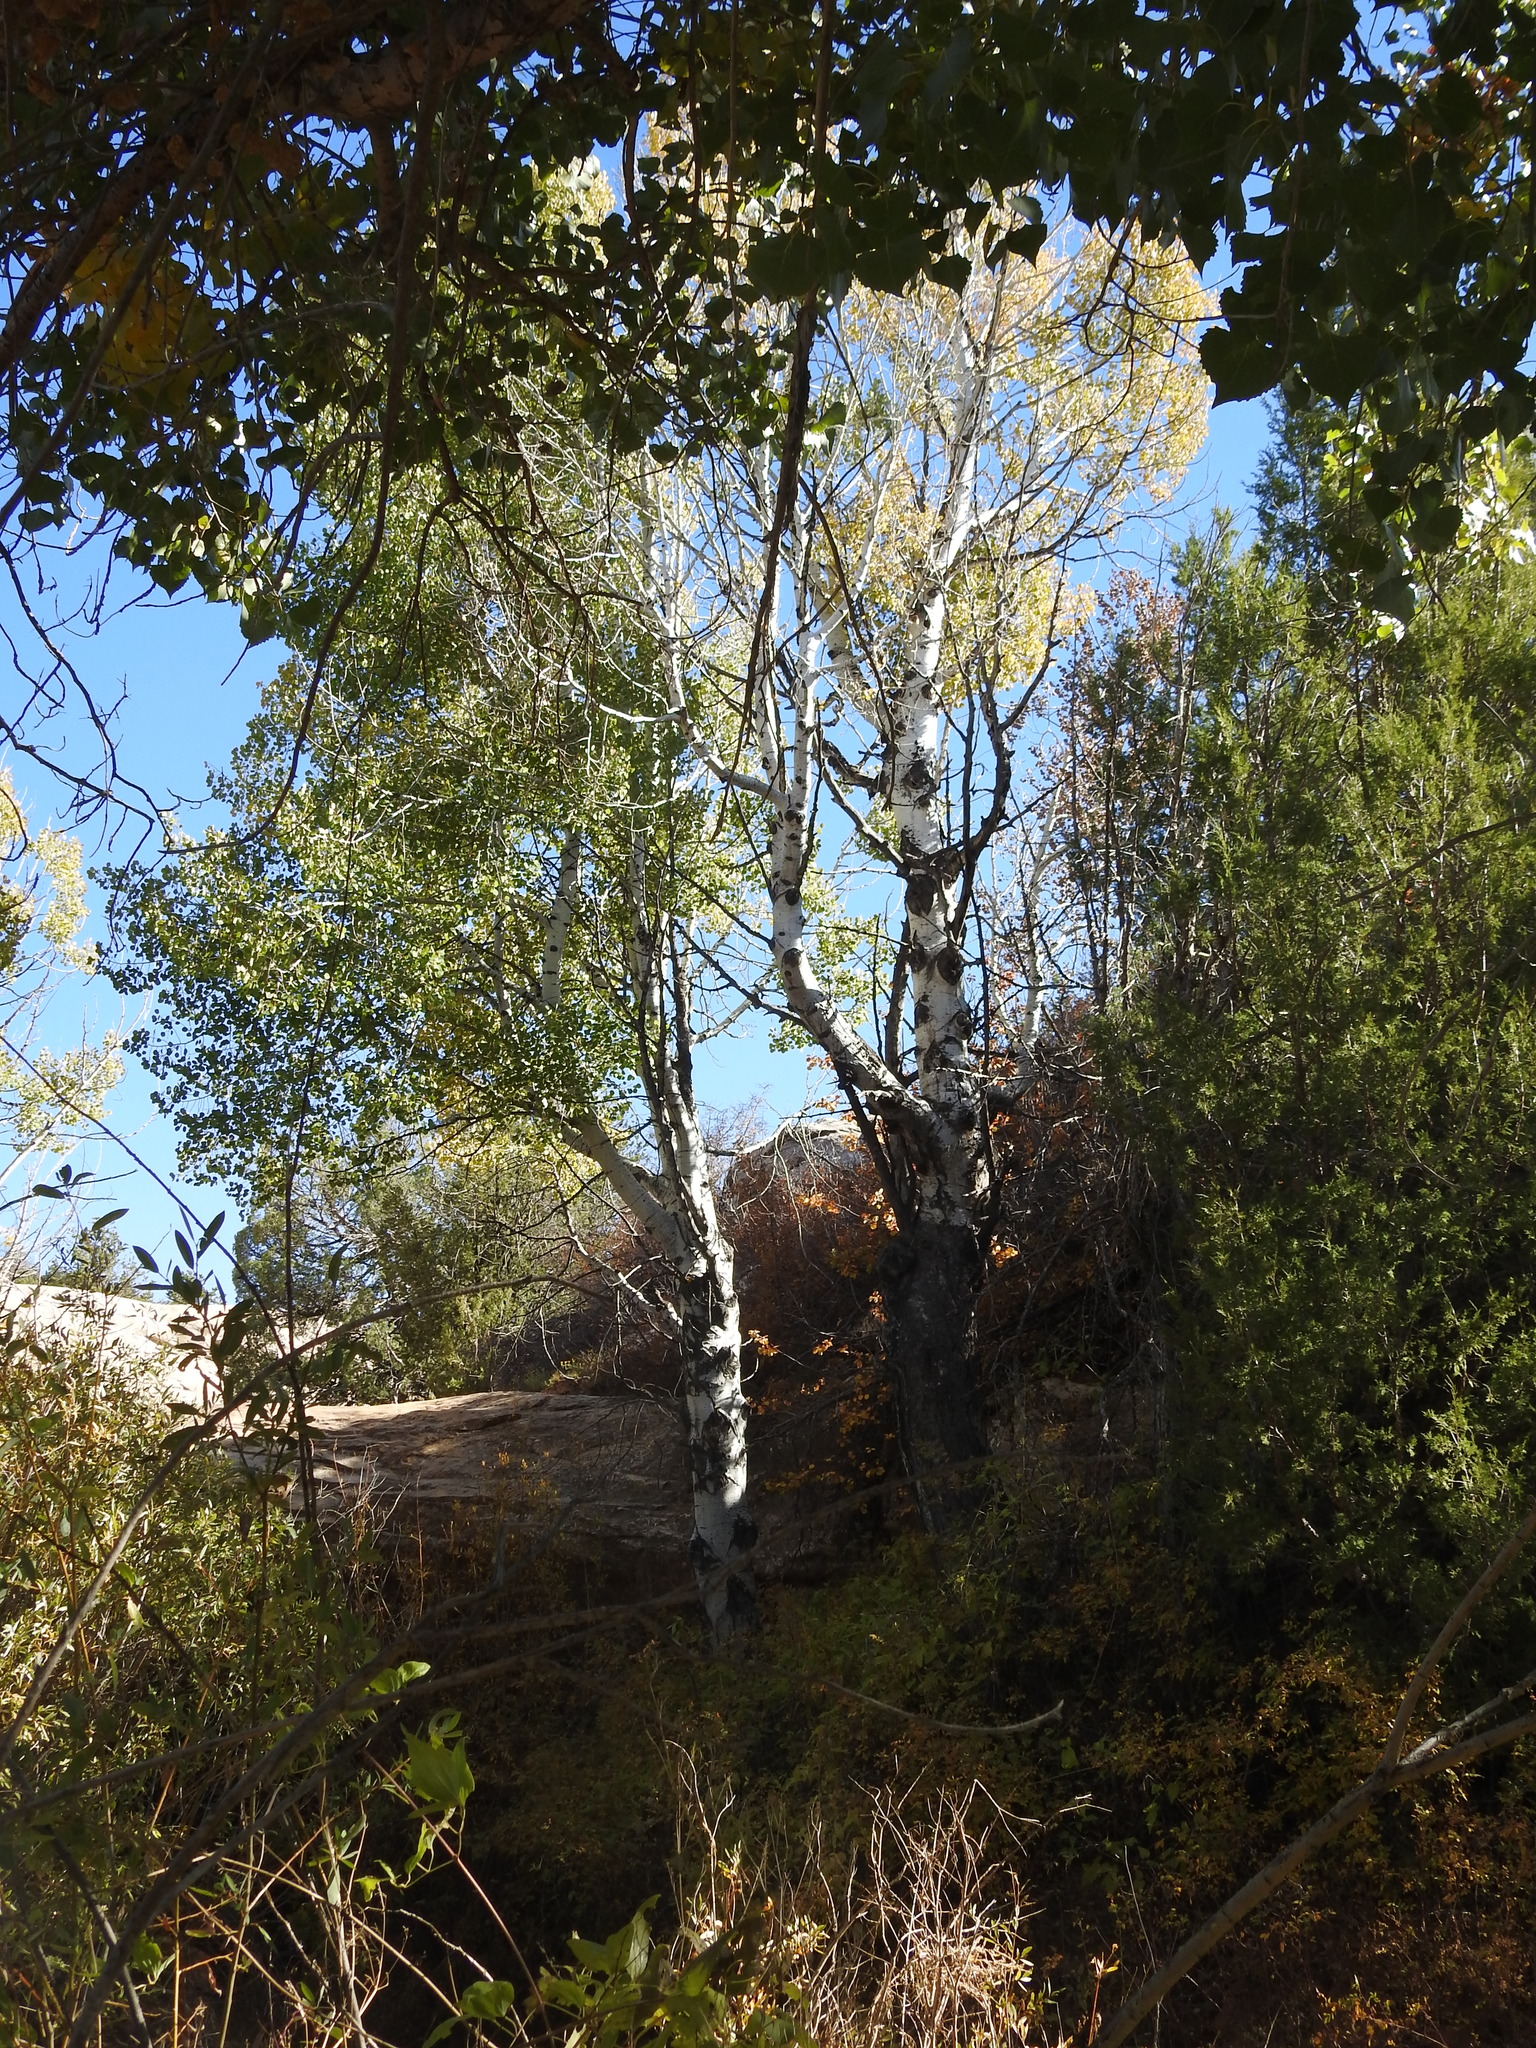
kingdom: Plantae
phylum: Tracheophyta
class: Magnoliopsida
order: Malpighiales
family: Salicaceae
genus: Populus
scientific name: Populus tremuloides
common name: Quaking aspen
